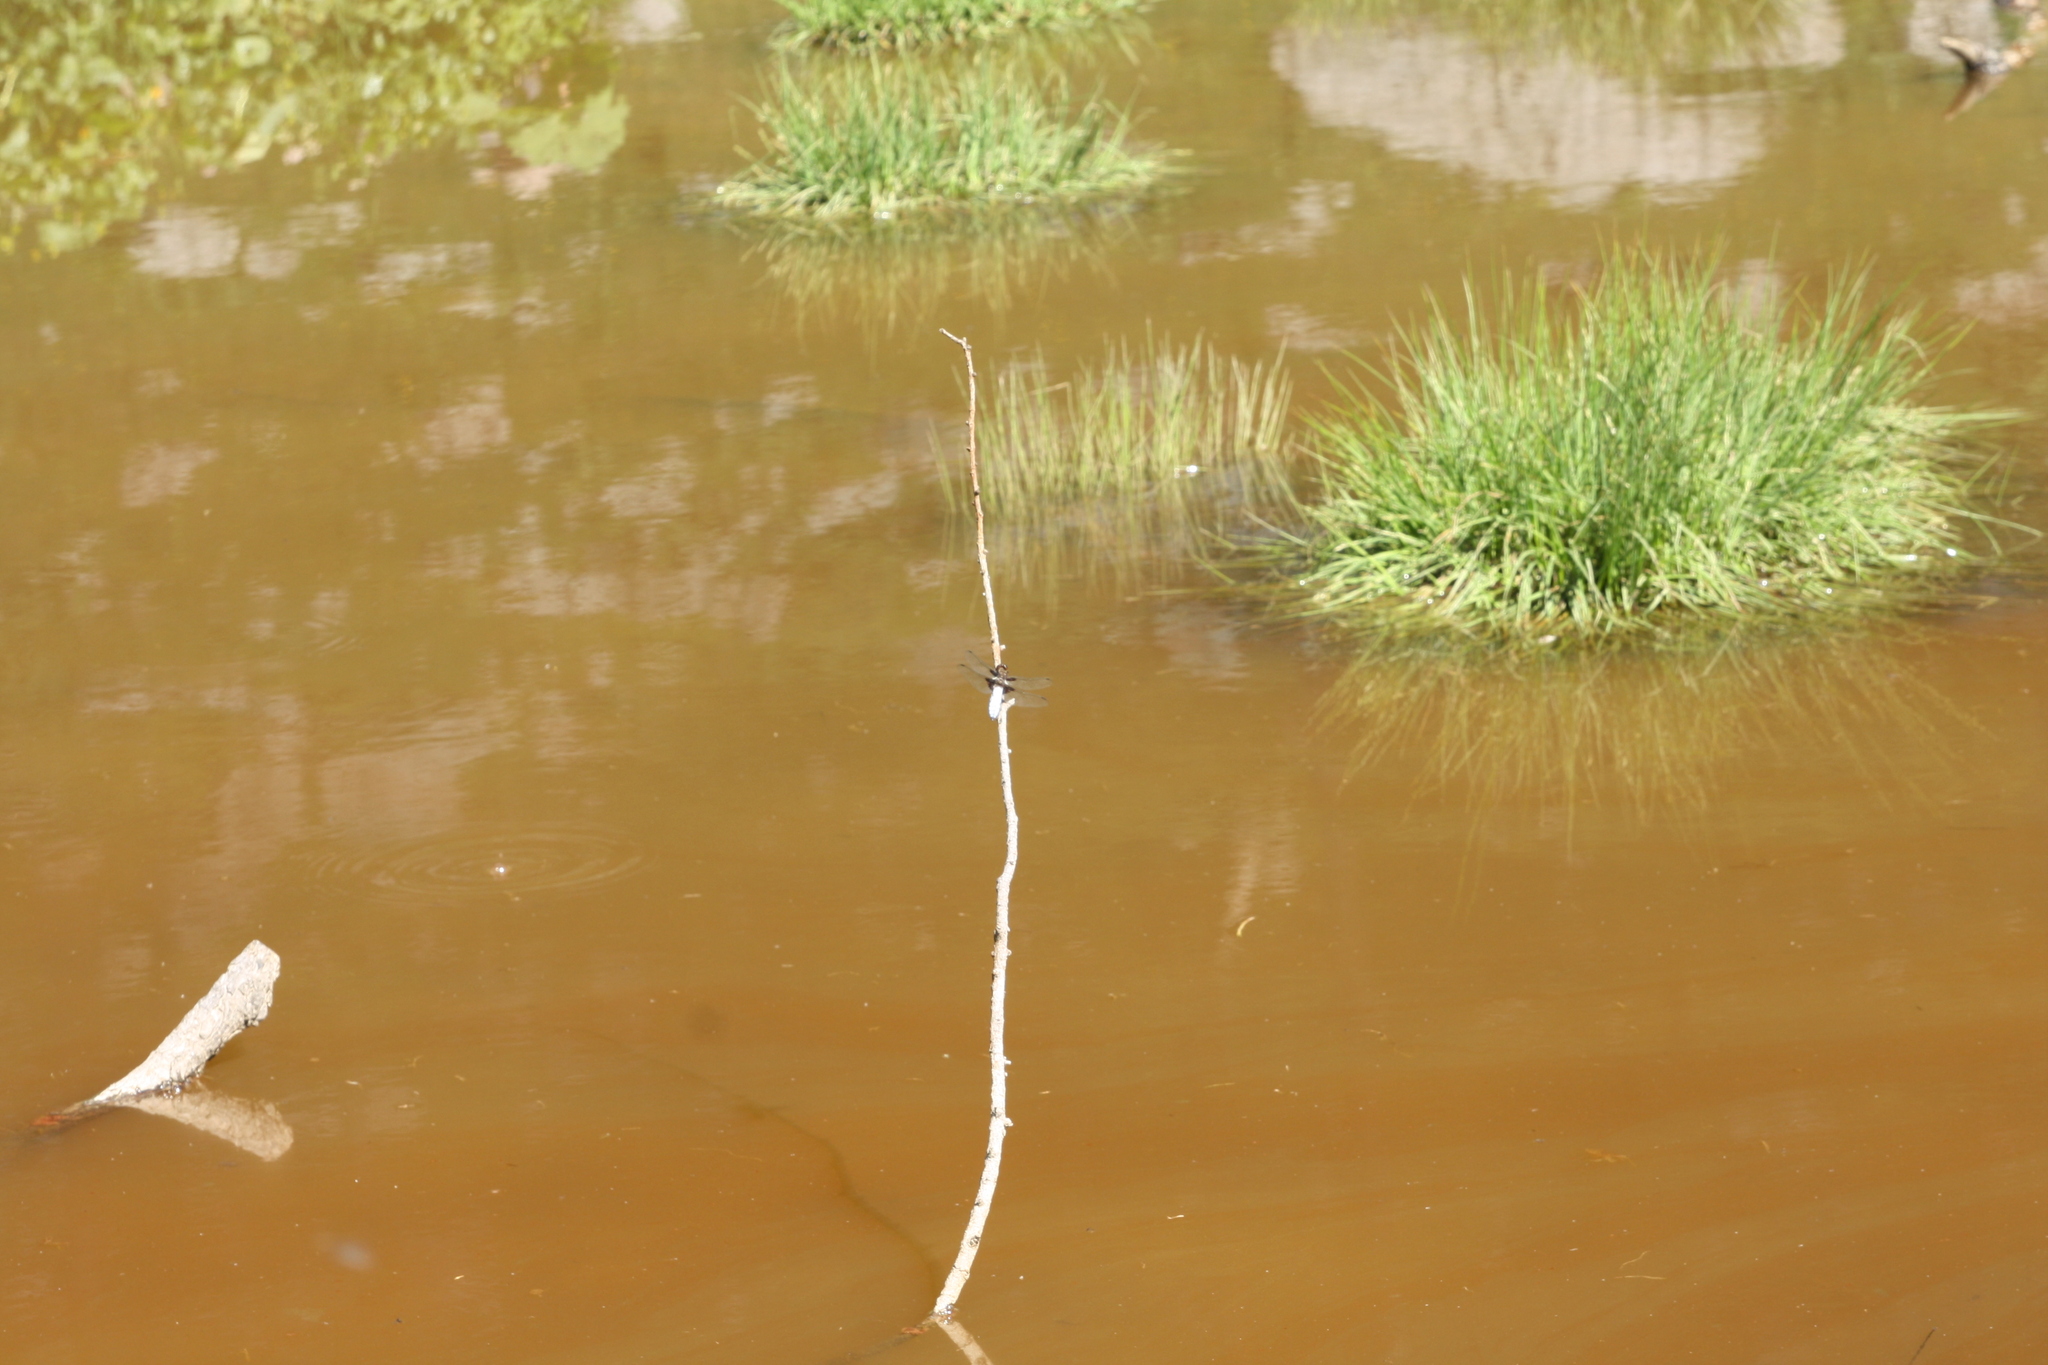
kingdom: Animalia
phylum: Arthropoda
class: Insecta
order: Odonata
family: Libellulidae
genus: Libellula
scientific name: Libellula depressa
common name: Broad-bodied chaser
